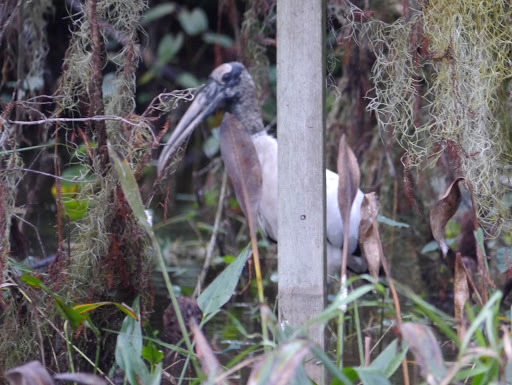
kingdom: Animalia
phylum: Chordata
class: Aves
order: Ciconiiformes
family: Ciconiidae
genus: Mycteria
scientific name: Mycteria americana
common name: Wood stork
